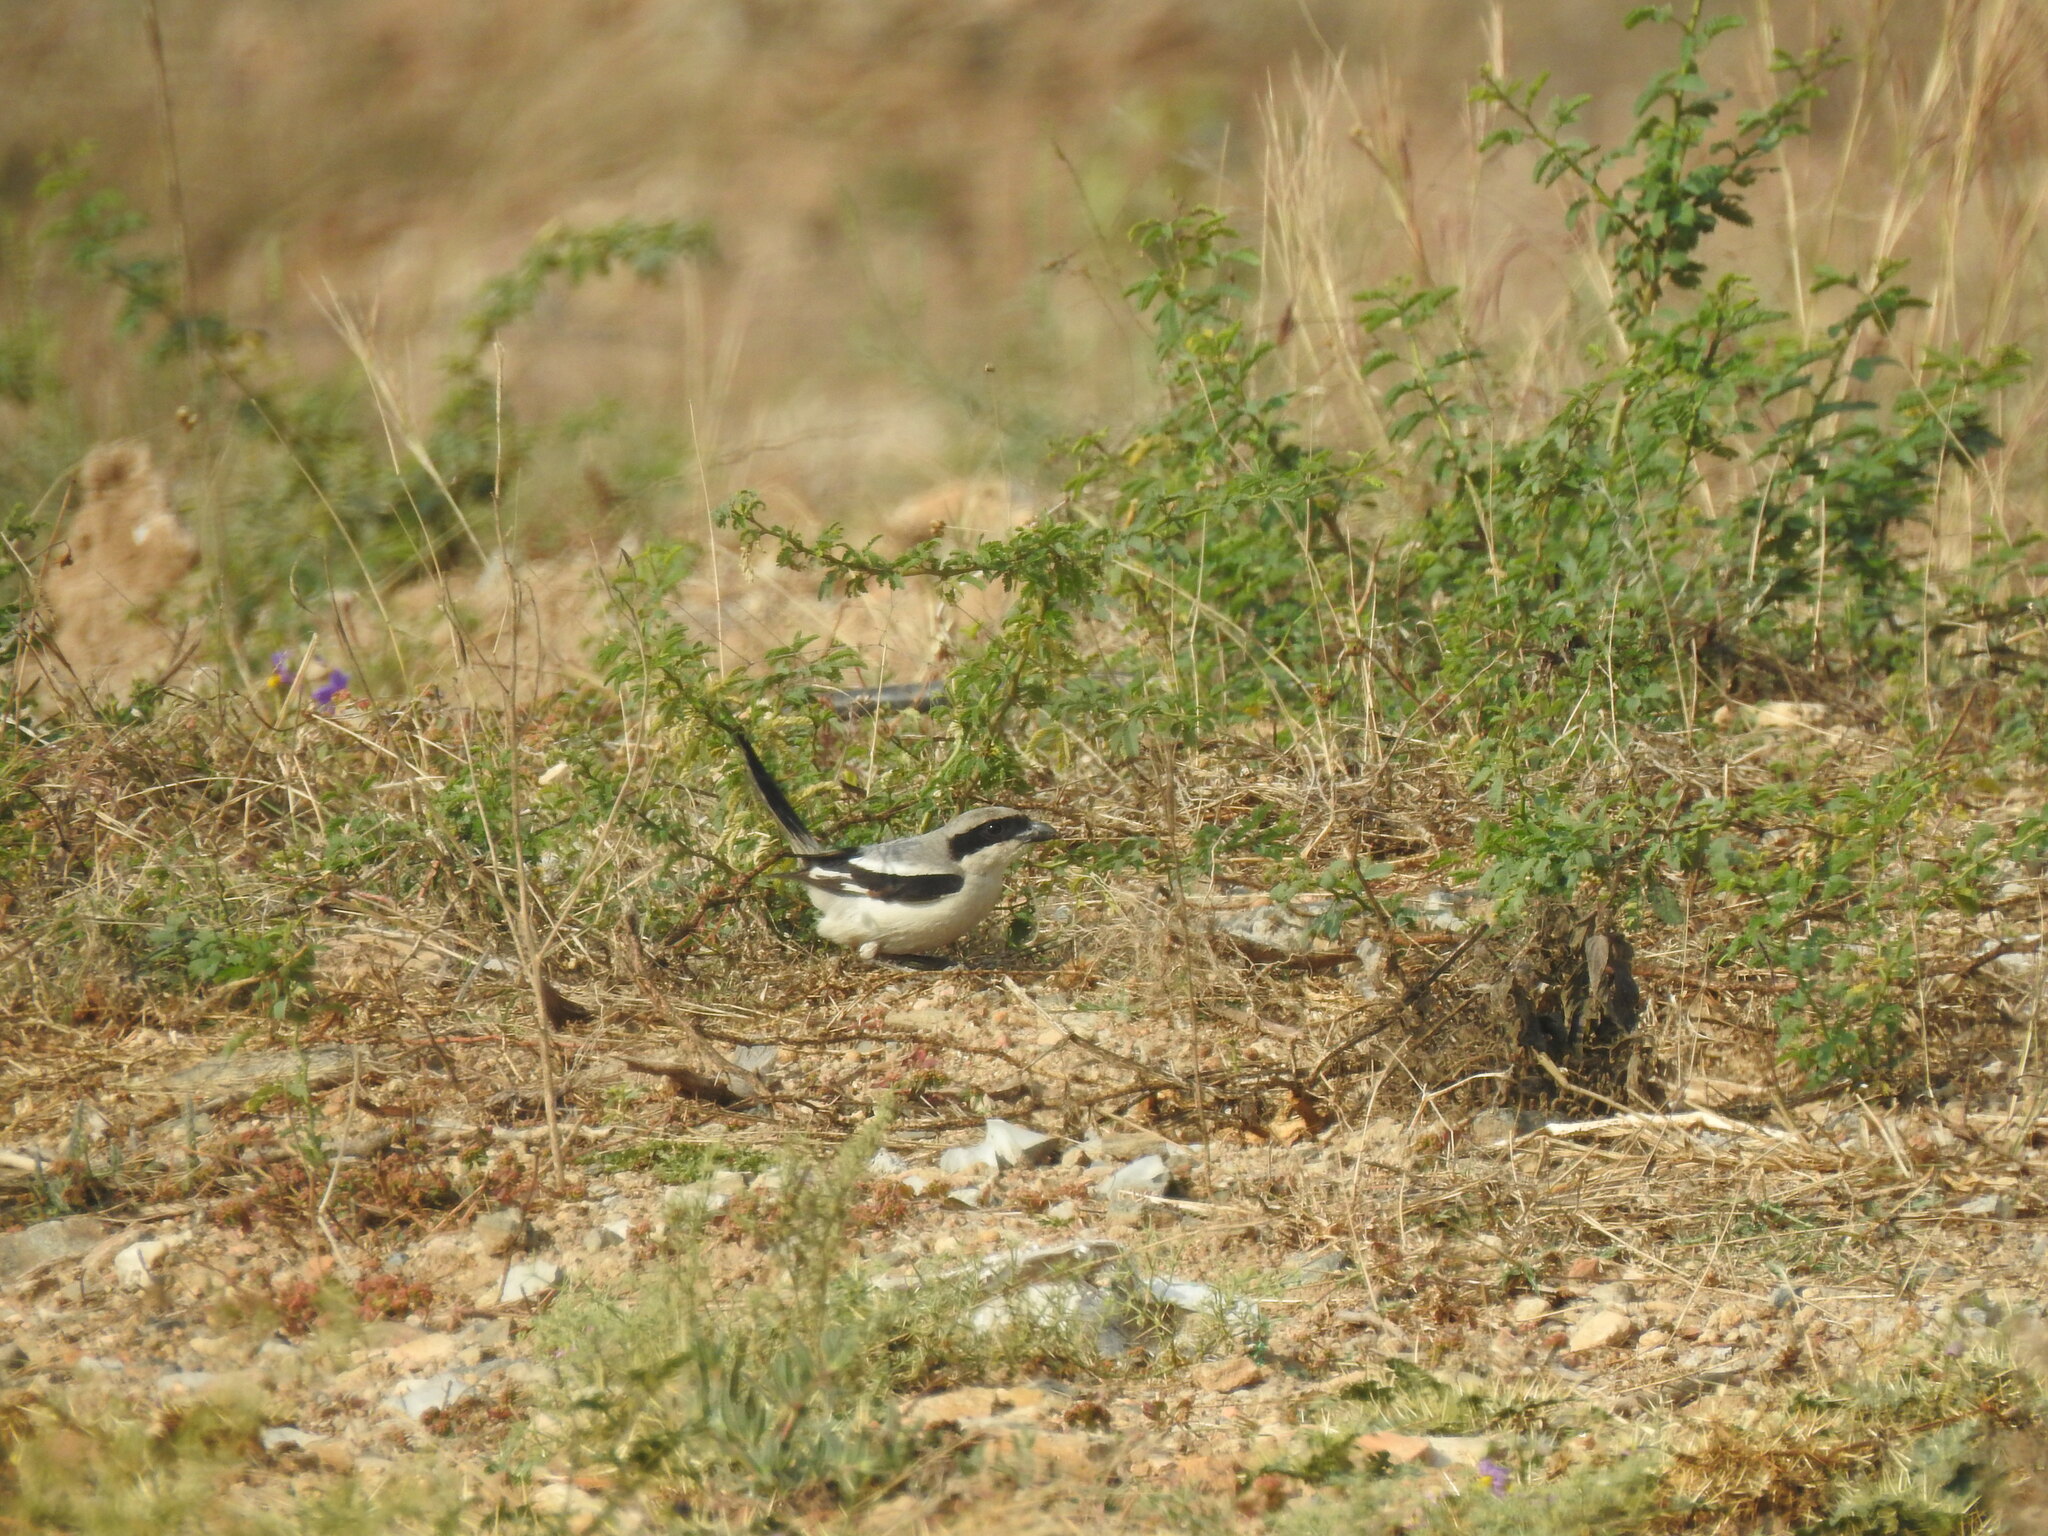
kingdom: Animalia
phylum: Chordata
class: Aves
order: Passeriformes
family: Laniidae
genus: Lanius
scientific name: Lanius excubitor
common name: Great grey shrike
